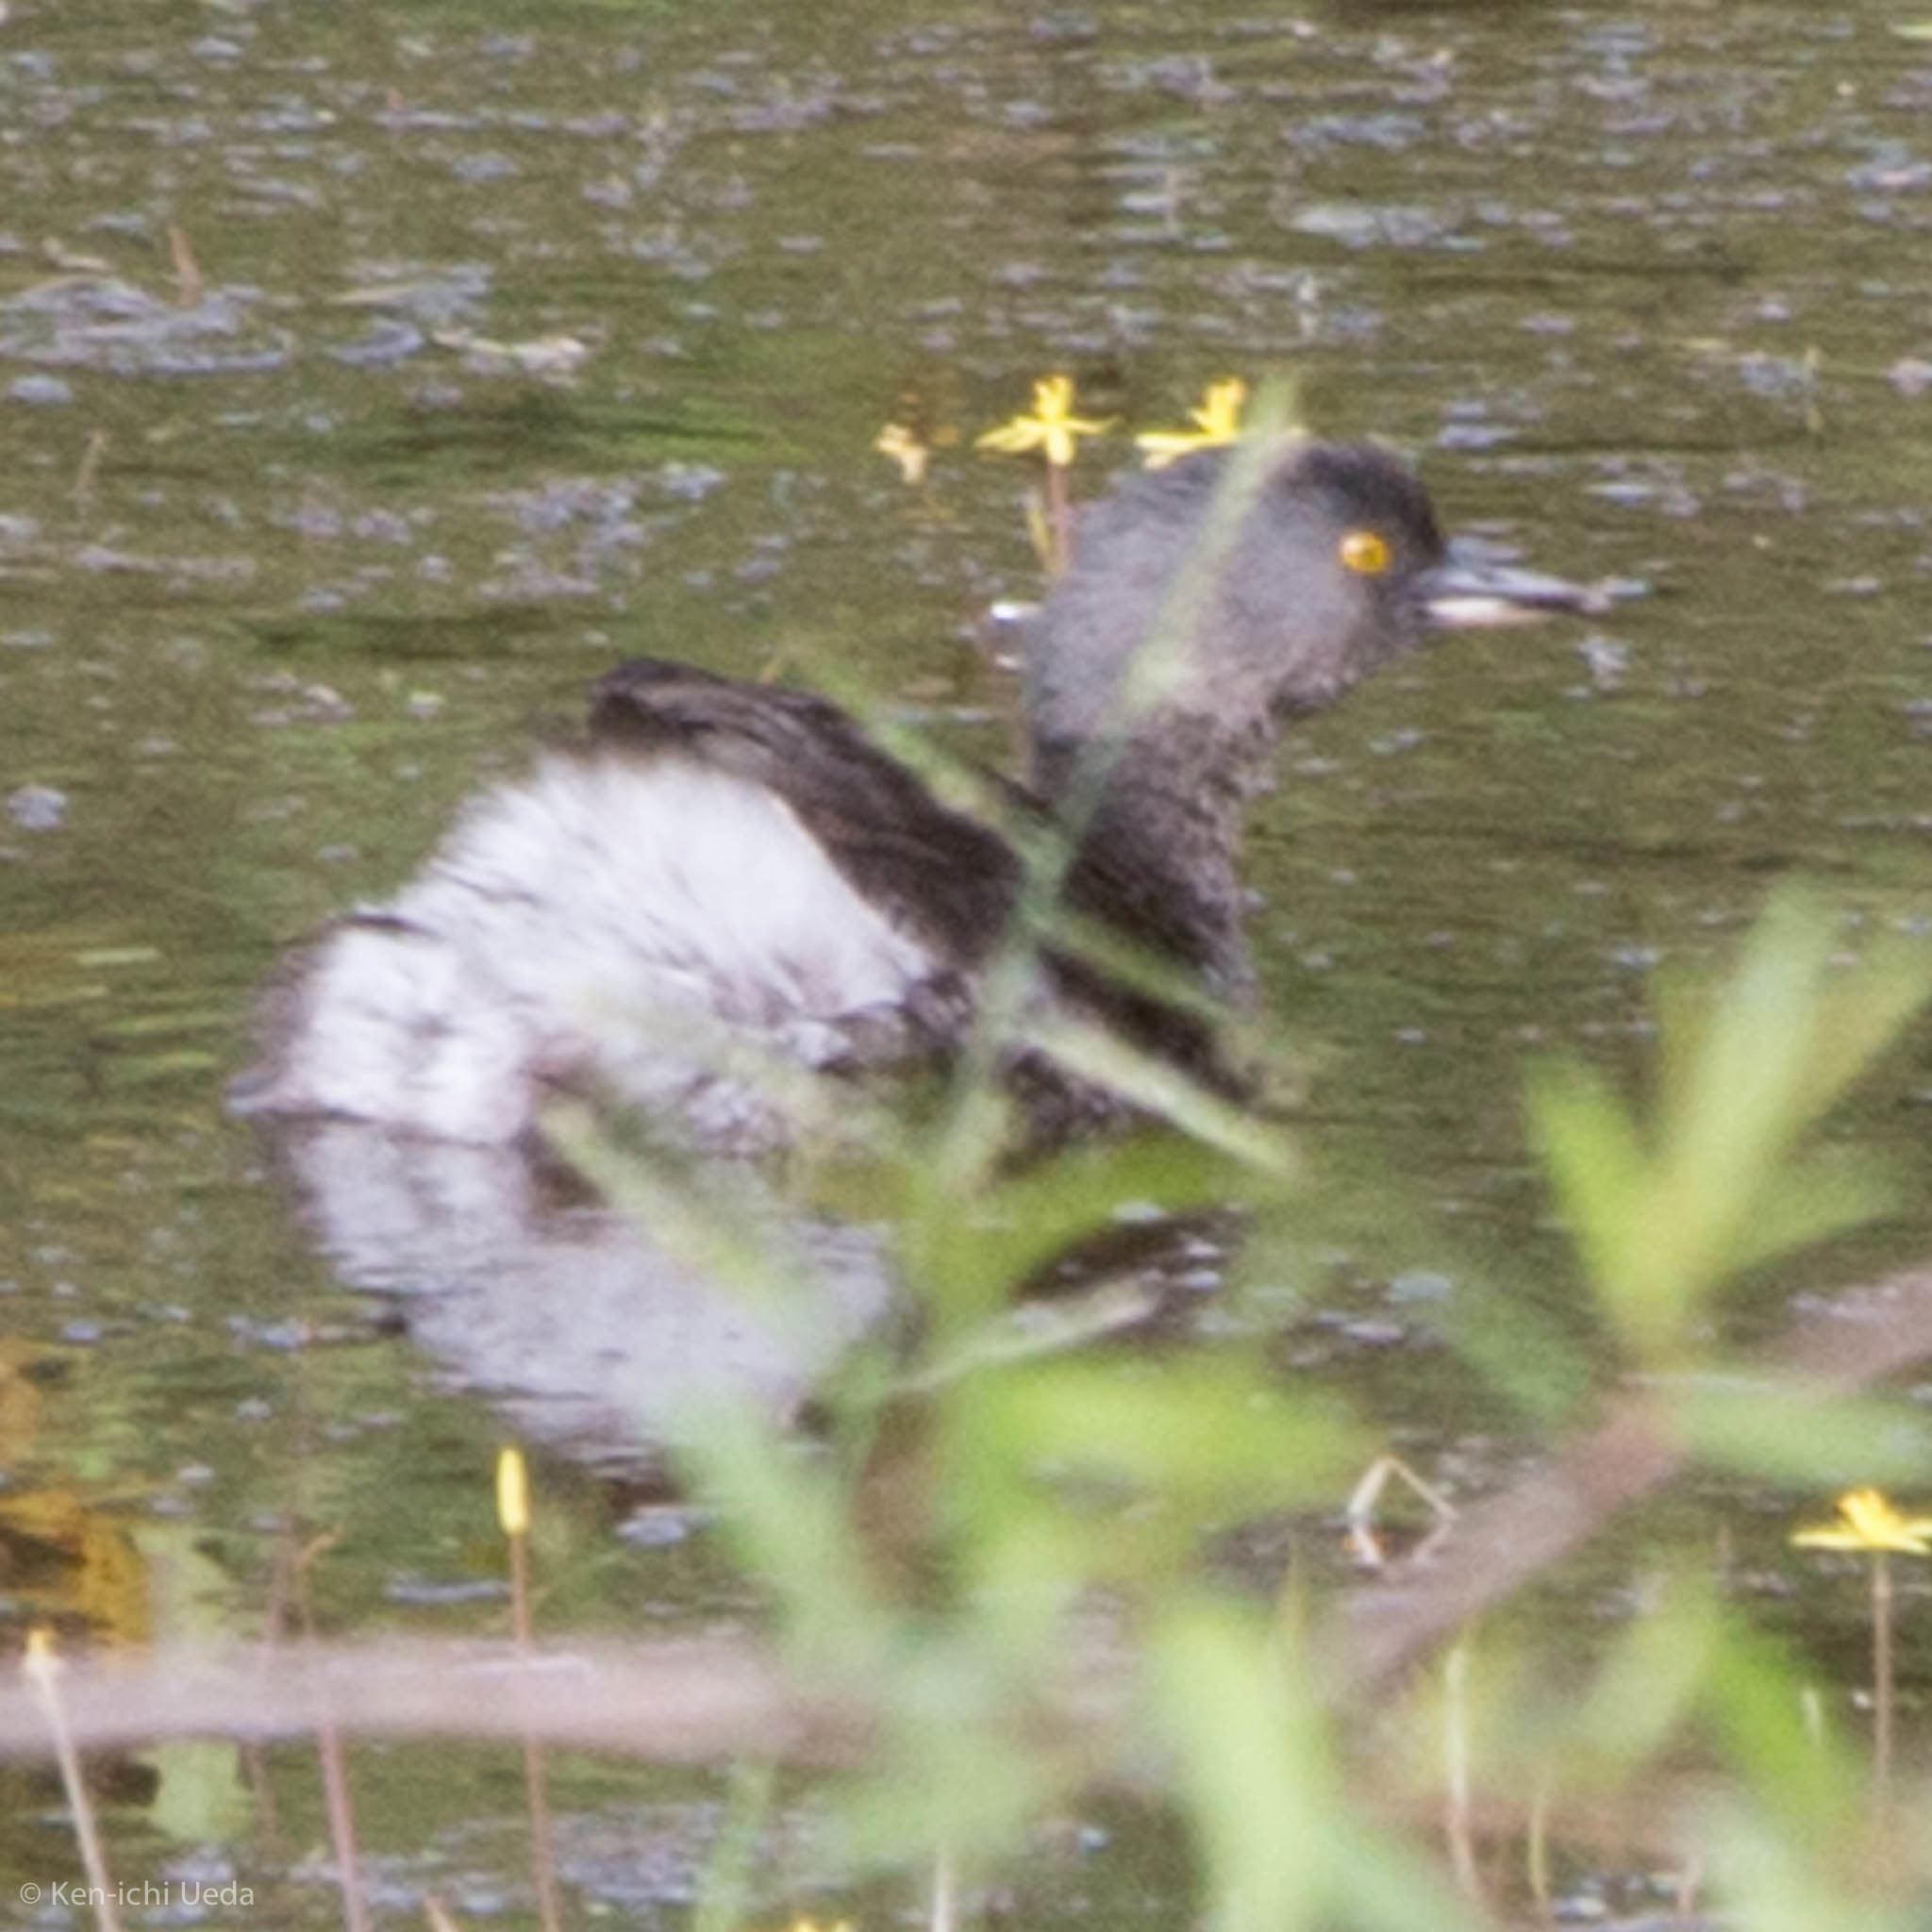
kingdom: Animalia
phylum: Chordata
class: Aves
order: Podicipediformes
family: Podicipedidae
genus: Tachybaptus
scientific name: Tachybaptus dominicus
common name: Least grebe
